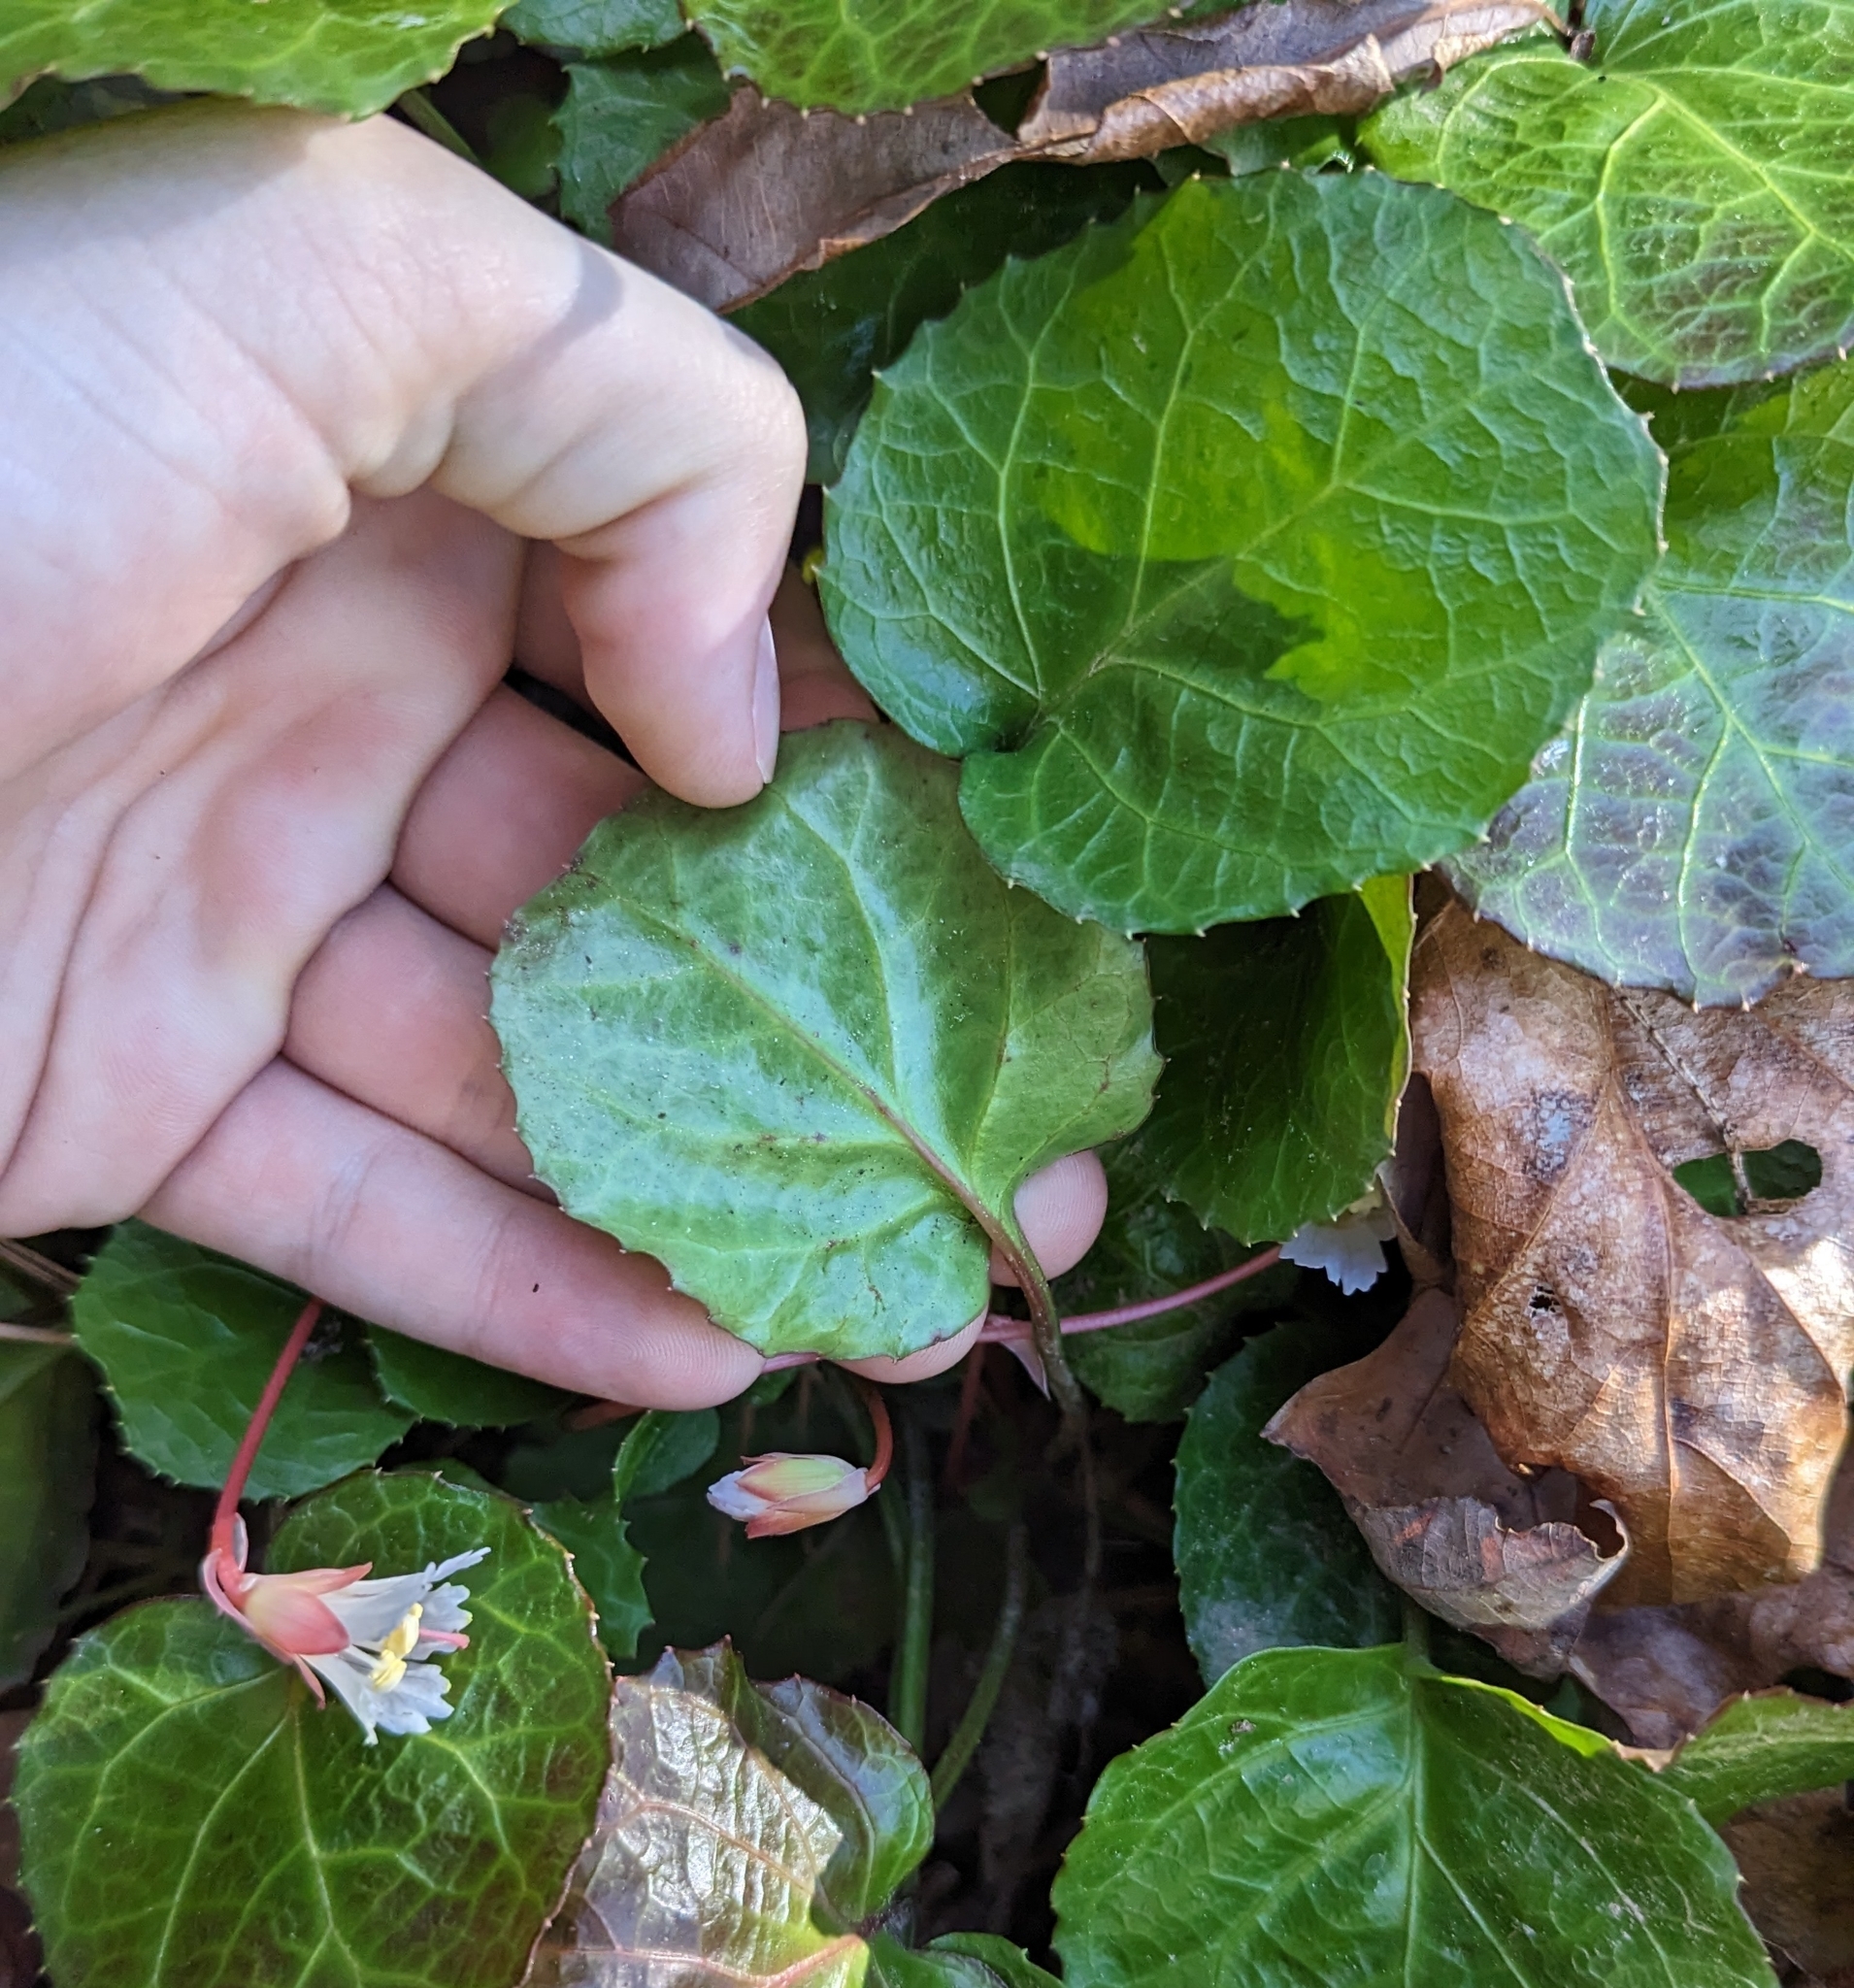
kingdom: Plantae
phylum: Tracheophyta
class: Magnoliopsida
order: Ericales
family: Diapensiaceae
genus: Shortia
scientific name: Shortia galacifolia
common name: Shortia
